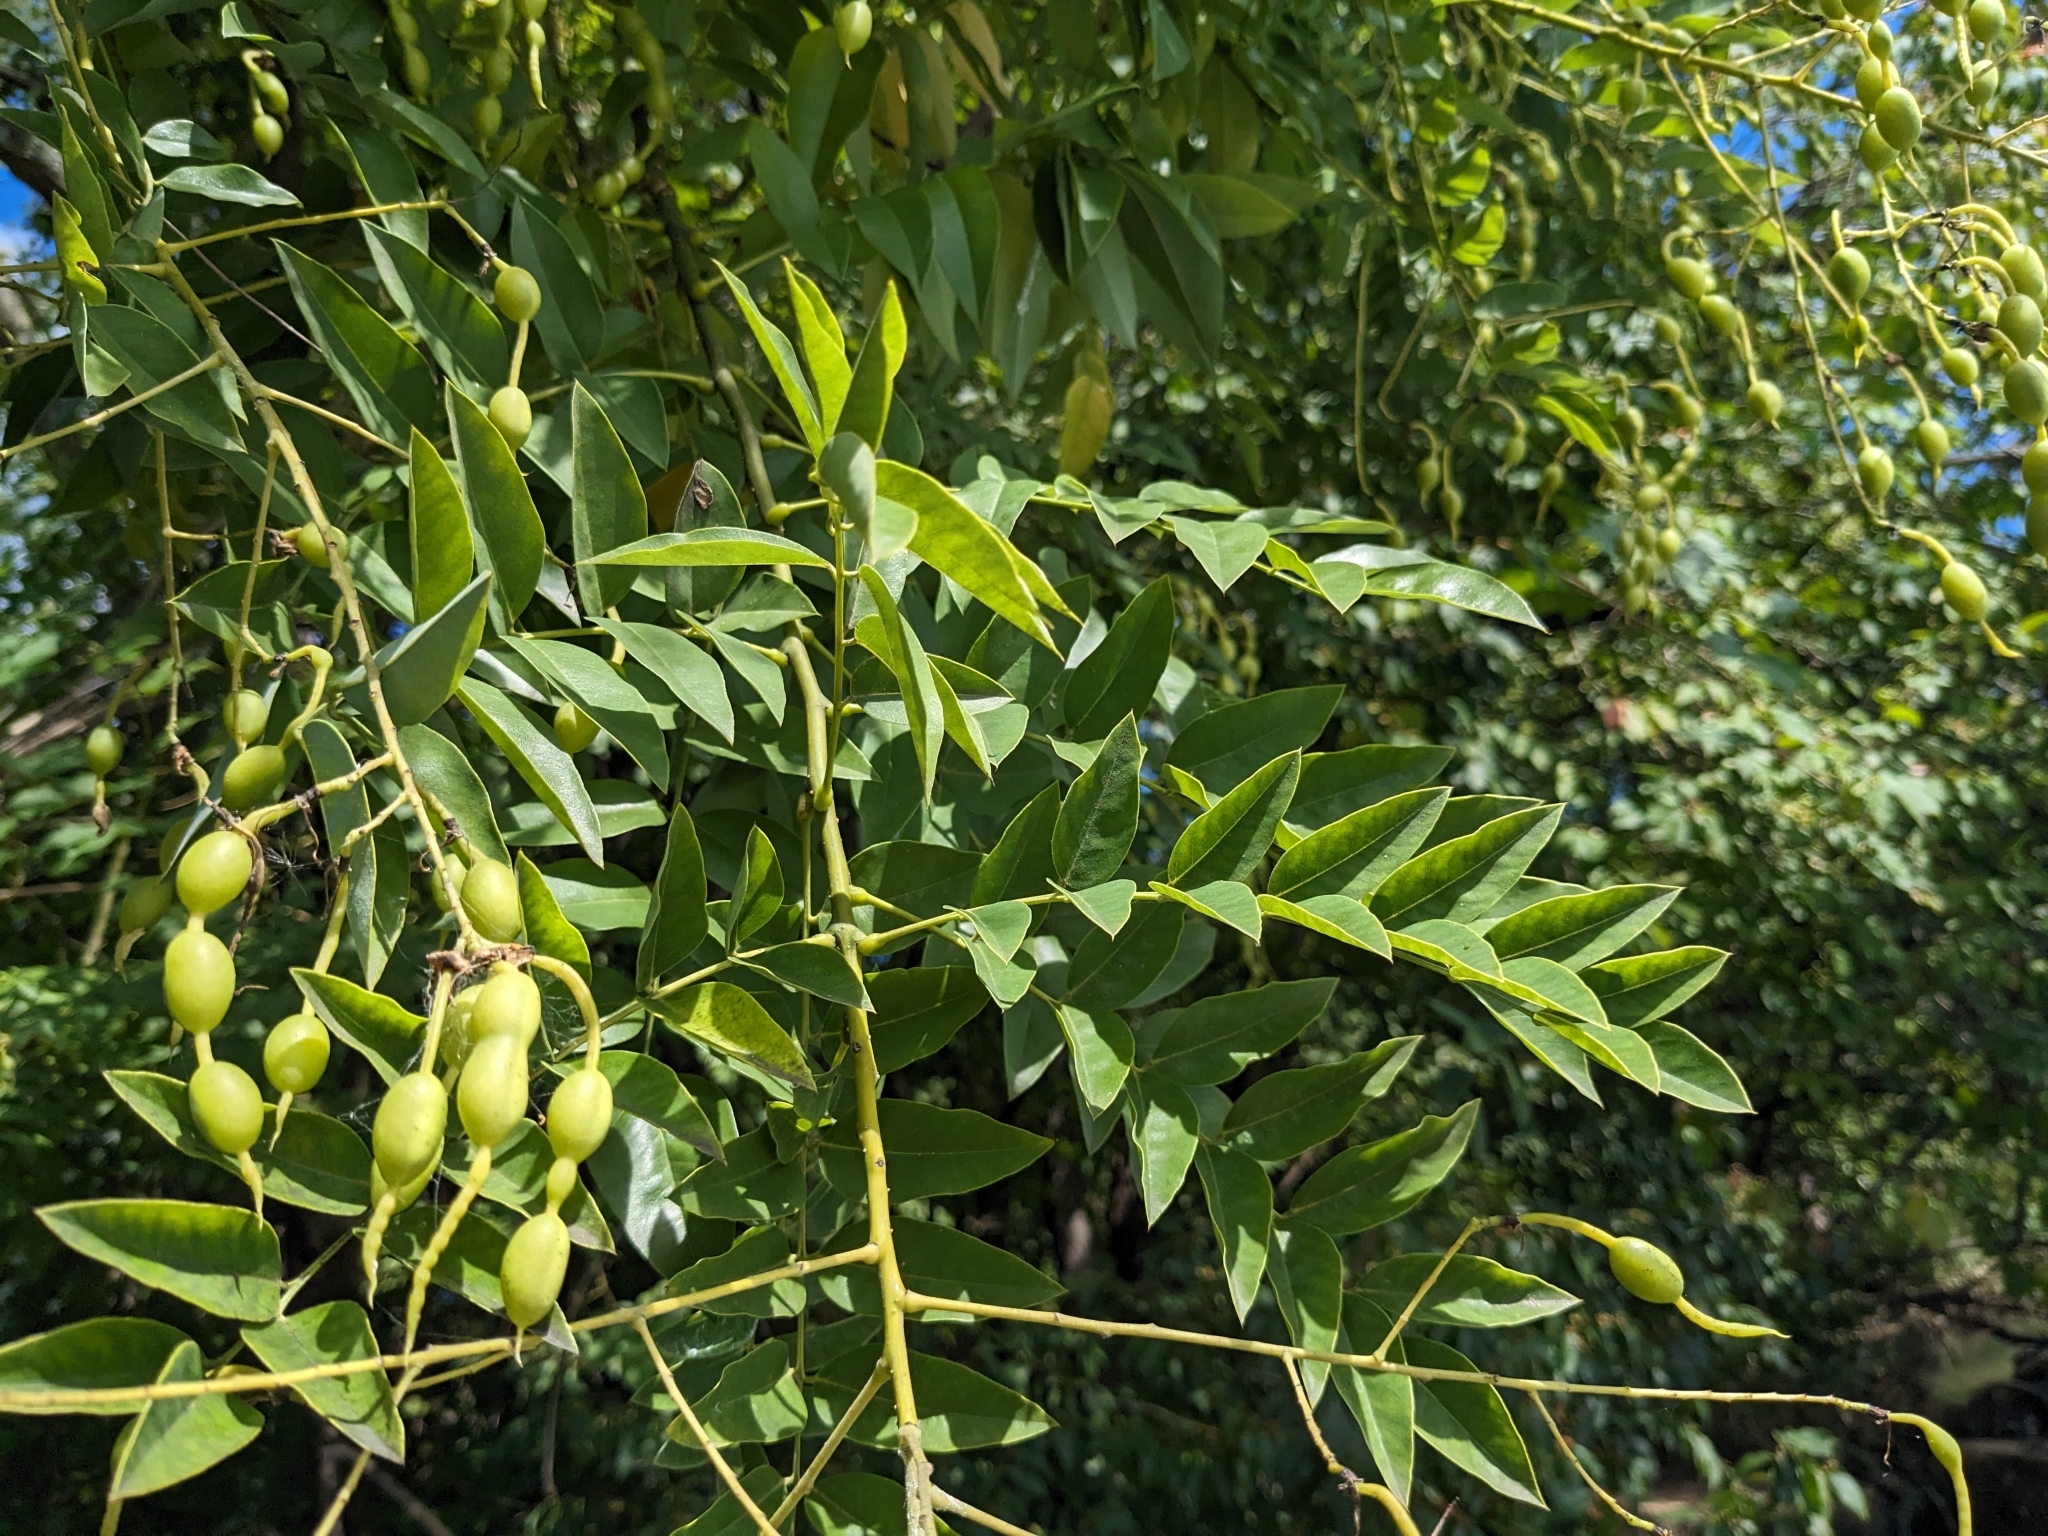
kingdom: Plantae
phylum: Tracheophyta
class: Magnoliopsida
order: Fabales
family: Fabaceae
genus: Styphnolobium
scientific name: Styphnolobium japonicum
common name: Chinese scholartree
